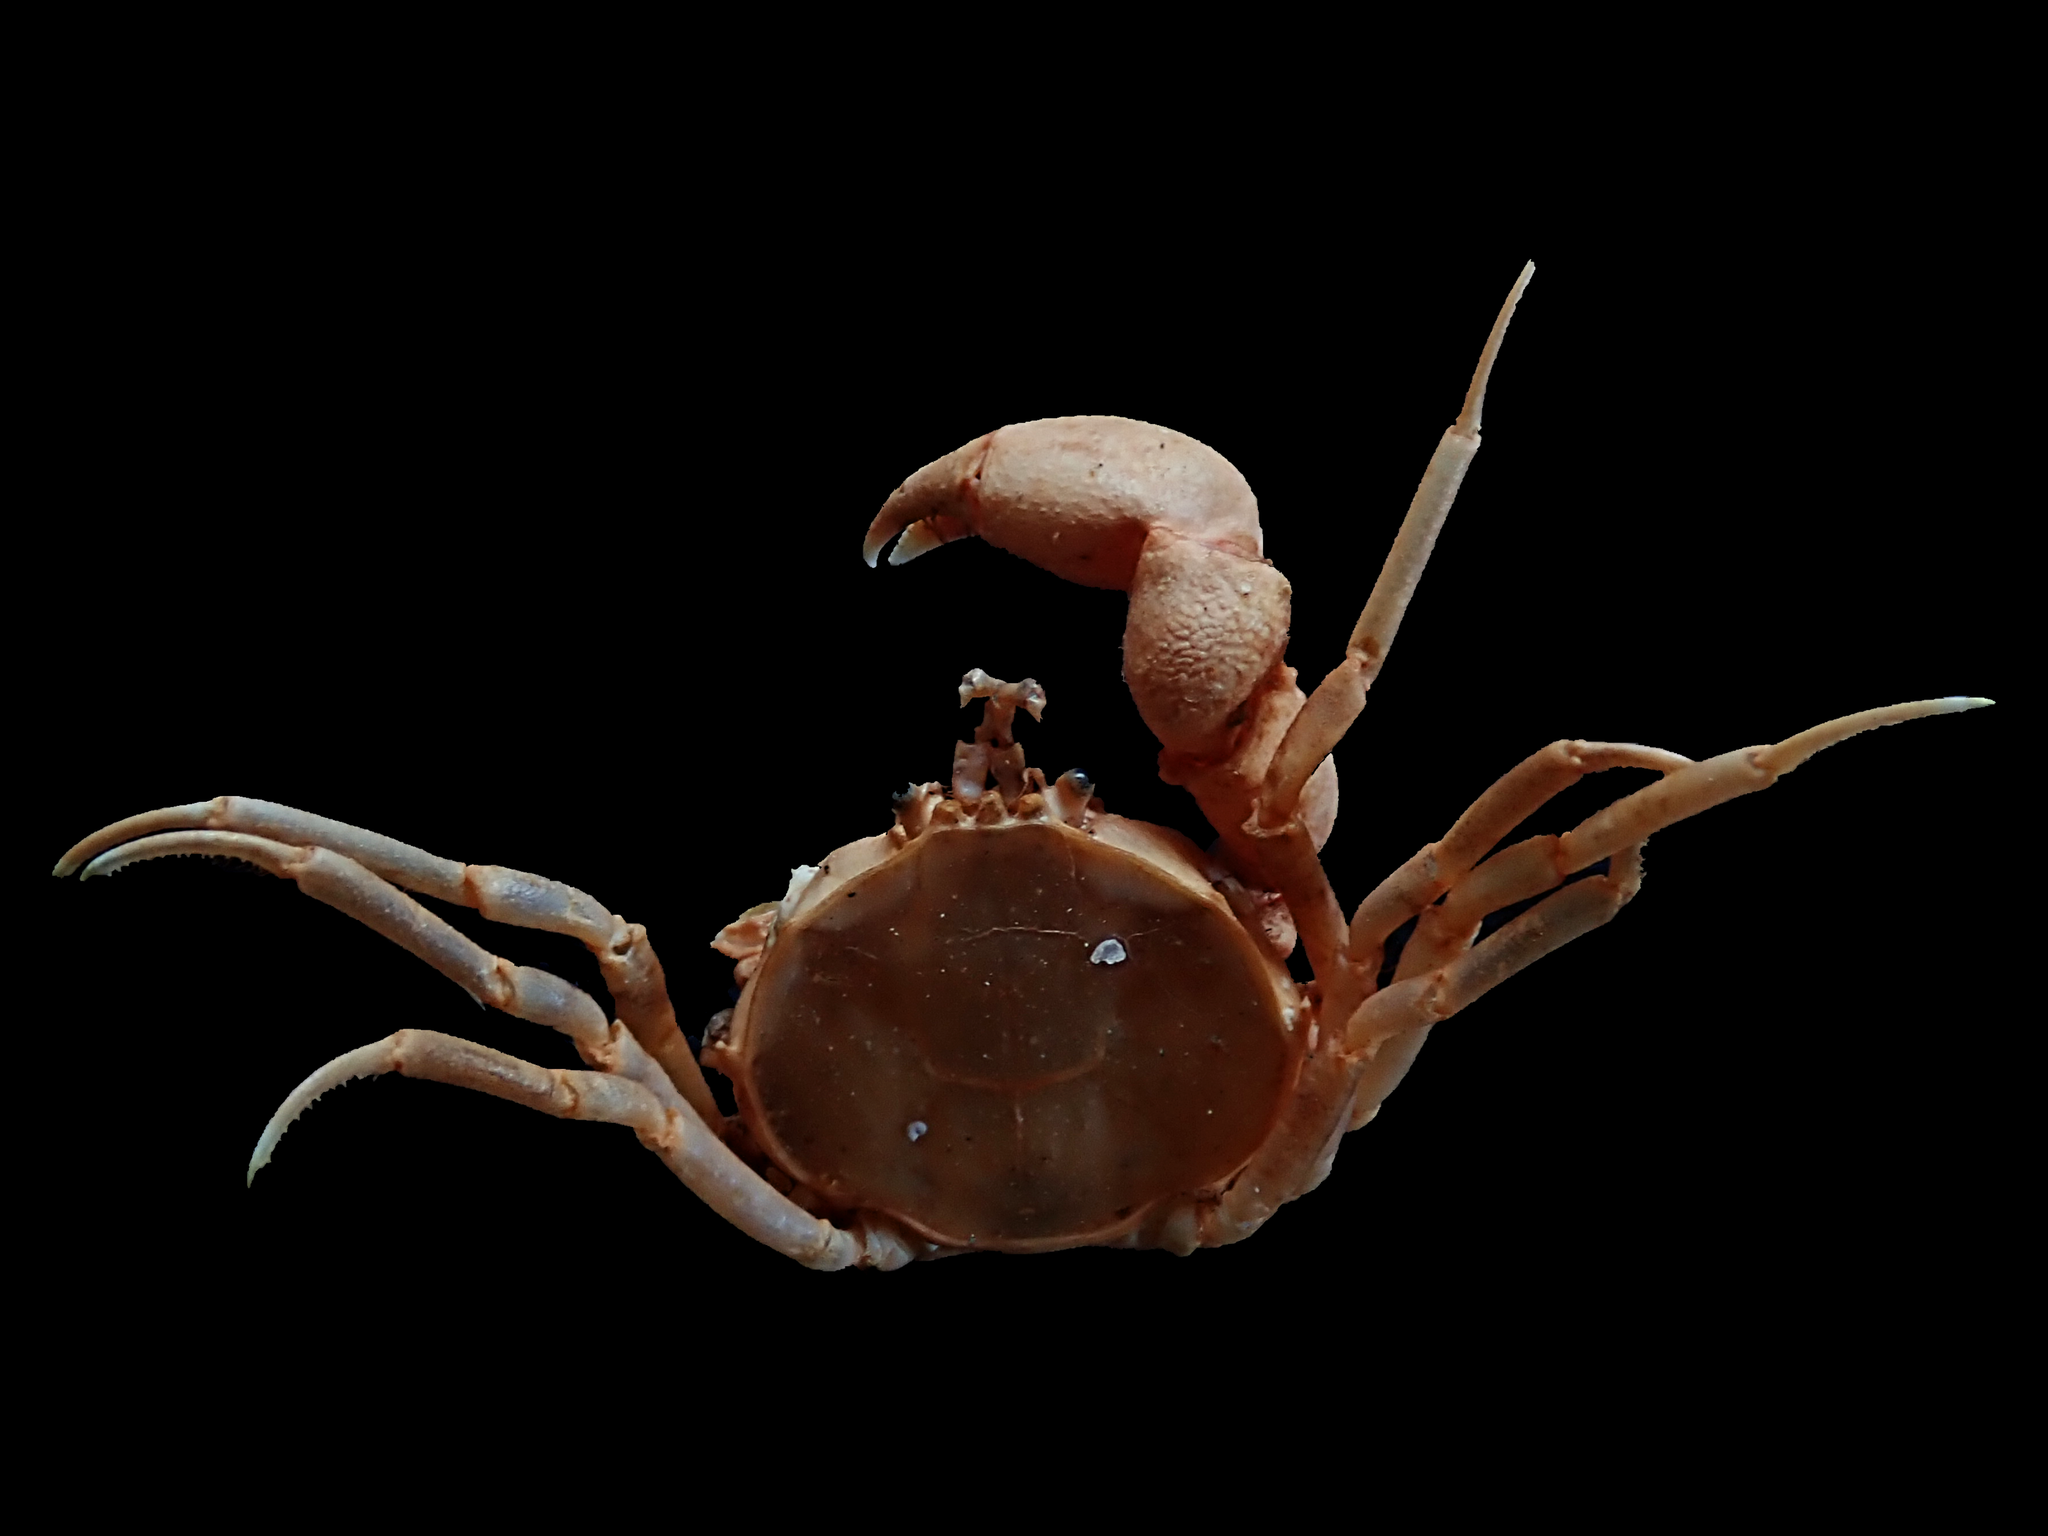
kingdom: Animalia
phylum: Arthropoda
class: Malacostraca
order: Decapoda
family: Hymenosomatidae
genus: Halicarcinus
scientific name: Halicarcinus ovatus
